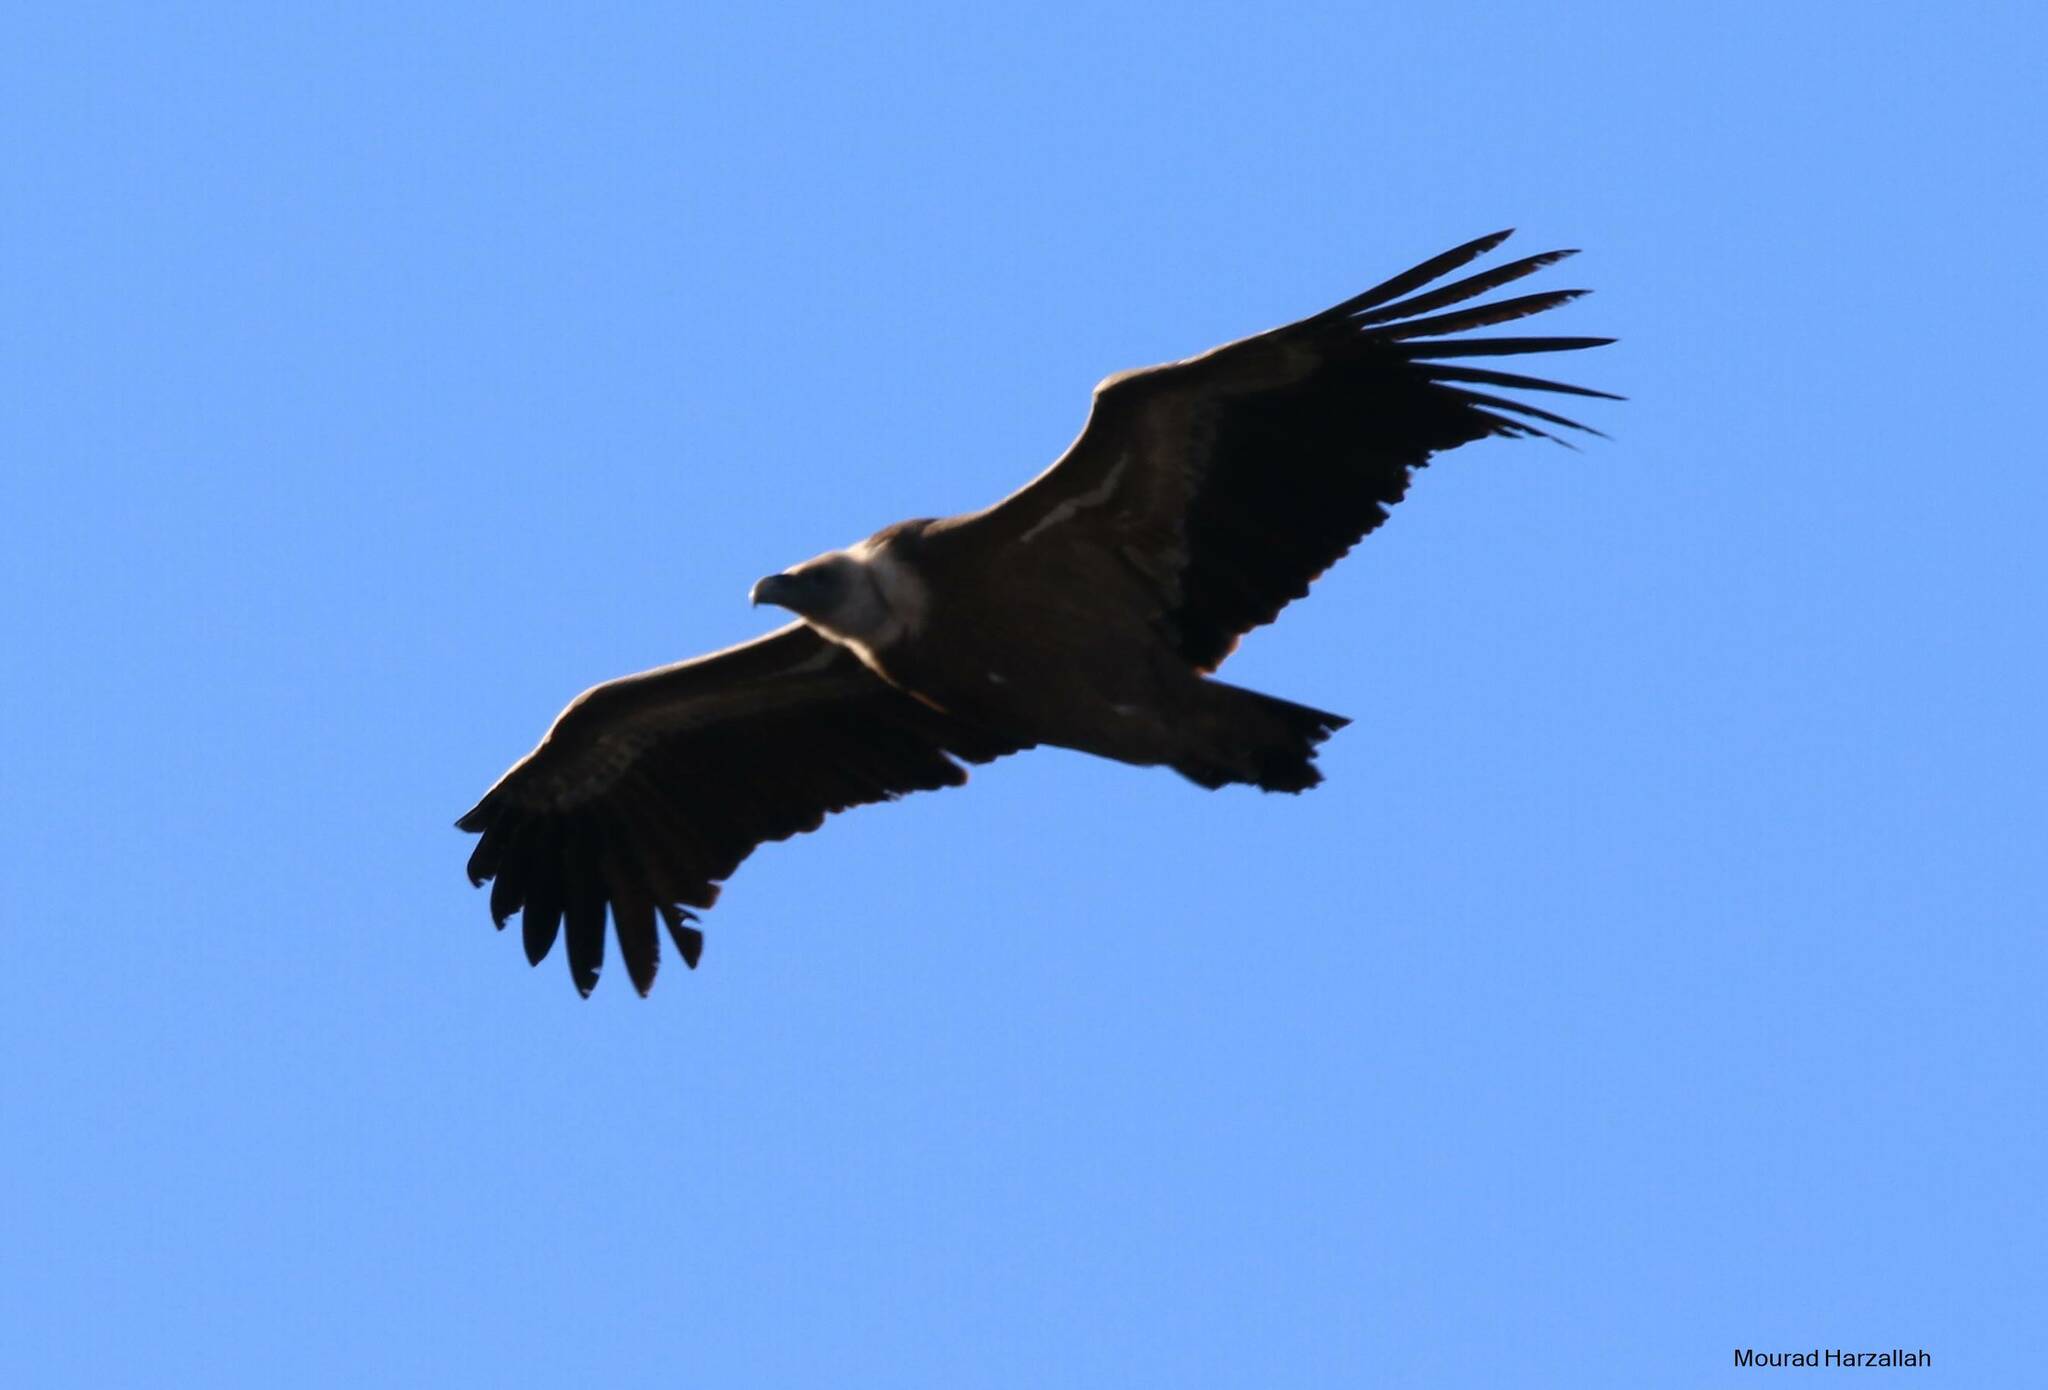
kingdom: Animalia
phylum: Chordata
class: Aves
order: Accipitriformes
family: Accipitridae
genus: Gyps
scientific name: Gyps fulvus
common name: Griffon vulture
